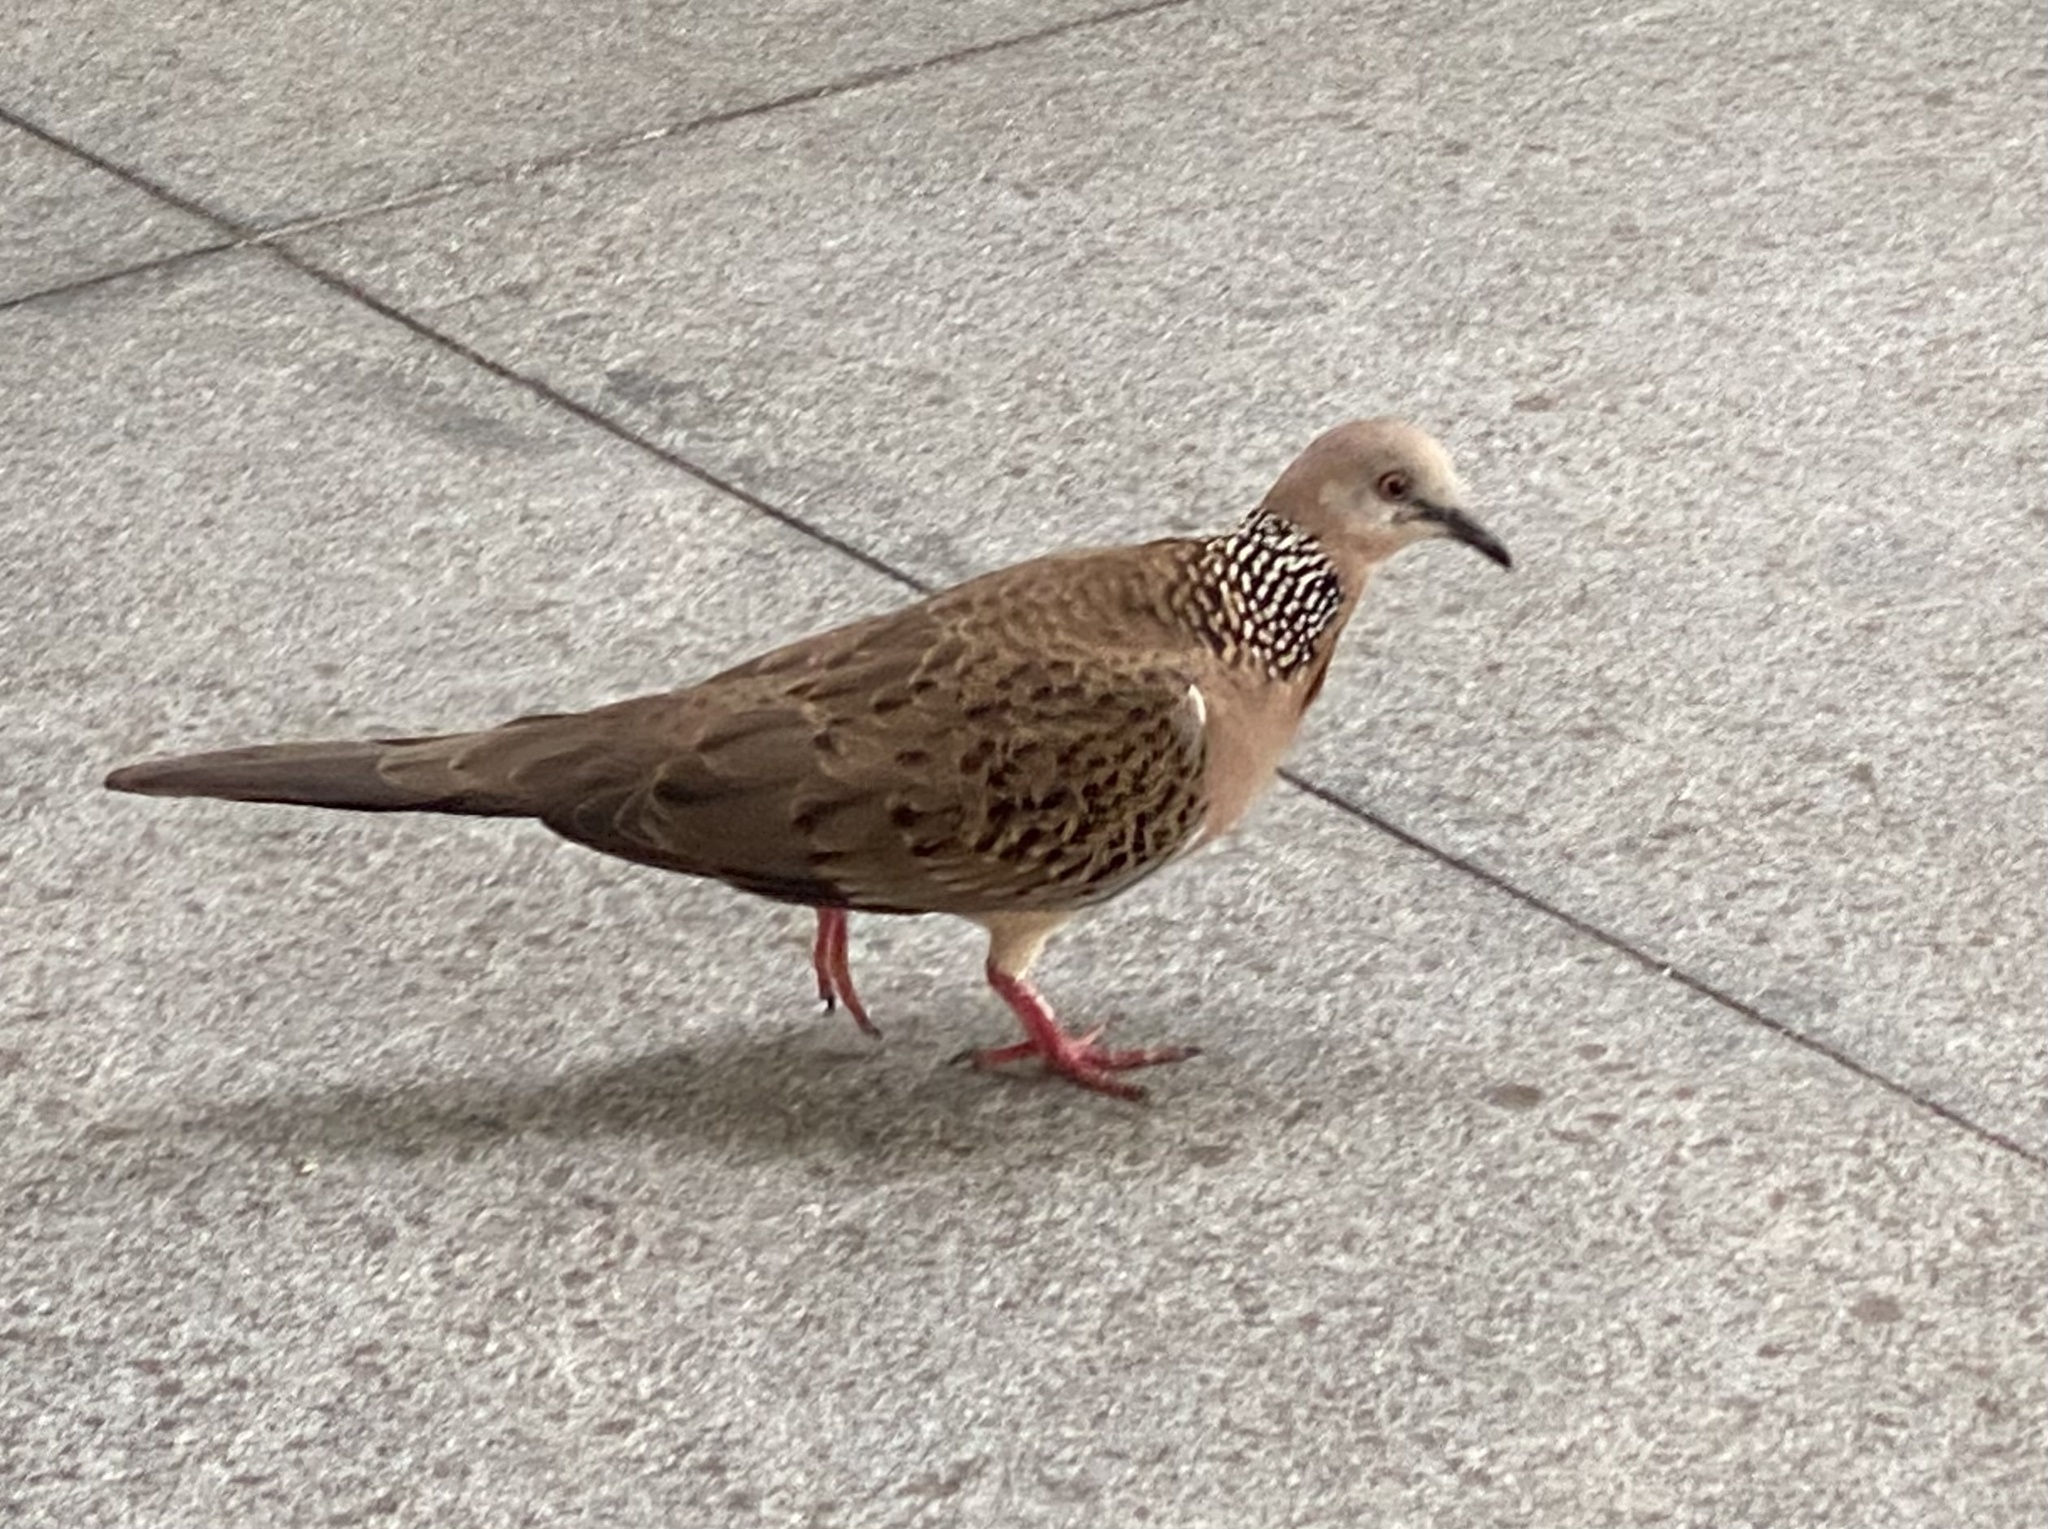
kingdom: Animalia
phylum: Chordata
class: Aves
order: Columbiformes
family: Columbidae
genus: Spilopelia
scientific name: Spilopelia chinensis
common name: Spotted dove
